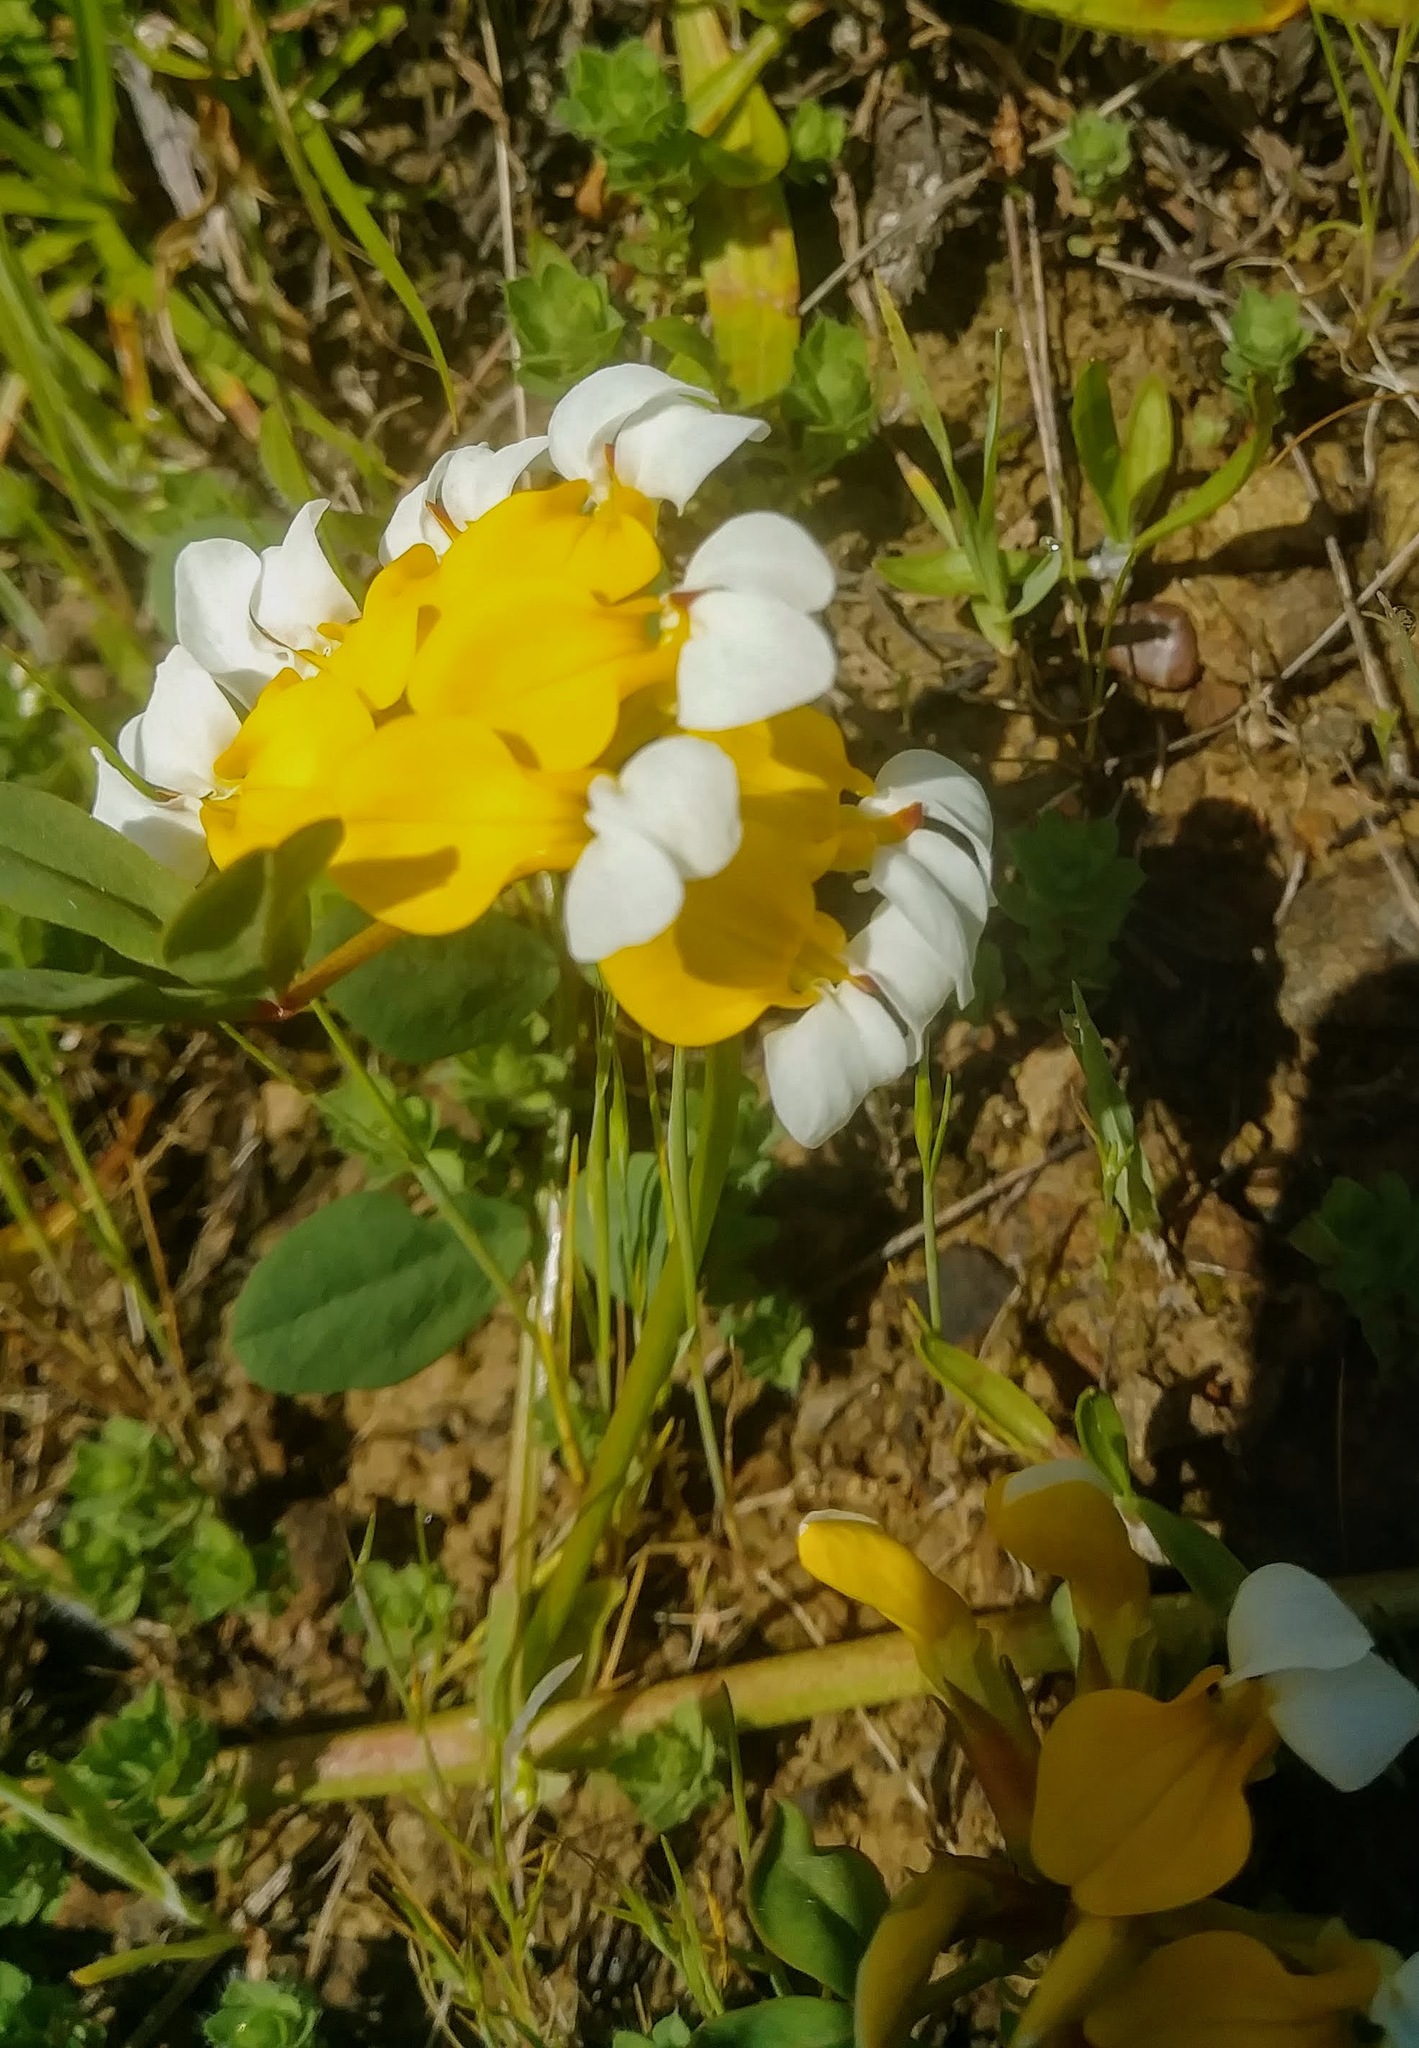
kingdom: Plantae
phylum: Tracheophyta
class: Magnoliopsida
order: Fabales
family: Fabaceae
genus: Hosackia
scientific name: Hosackia gracilis
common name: Seaside bird's-foot lotus
